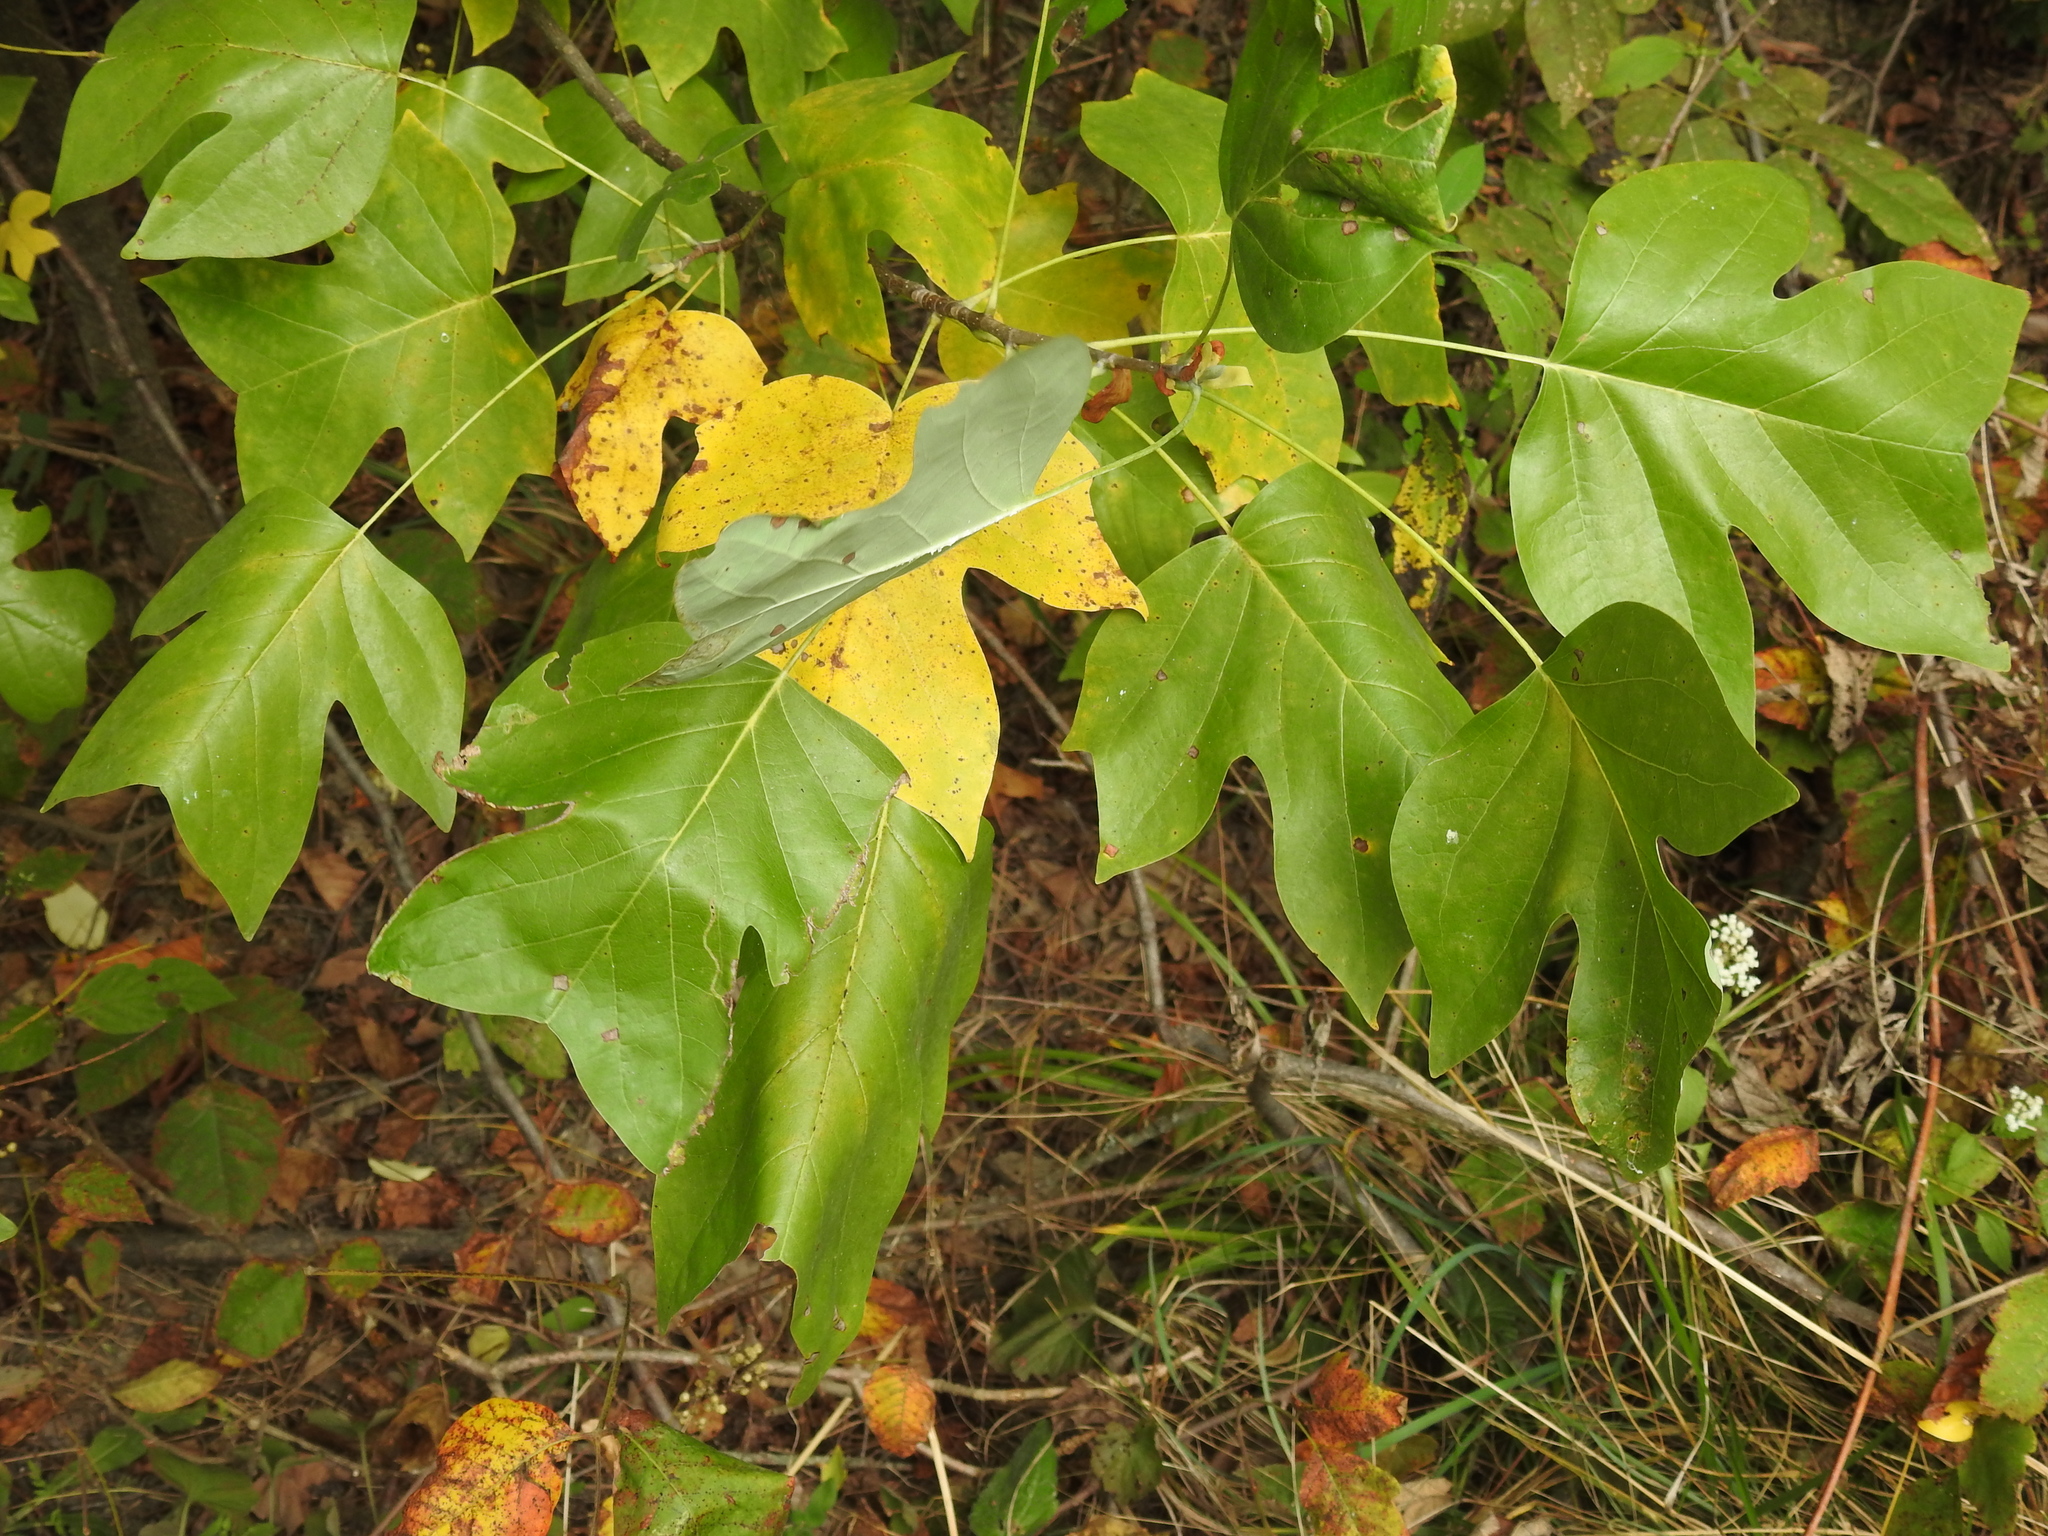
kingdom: Plantae
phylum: Tracheophyta
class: Magnoliopsida
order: Magnoliales
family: Magnoliaceae
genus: Liriodendron
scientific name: Liriodendron tulipifera
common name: Tulip tree
